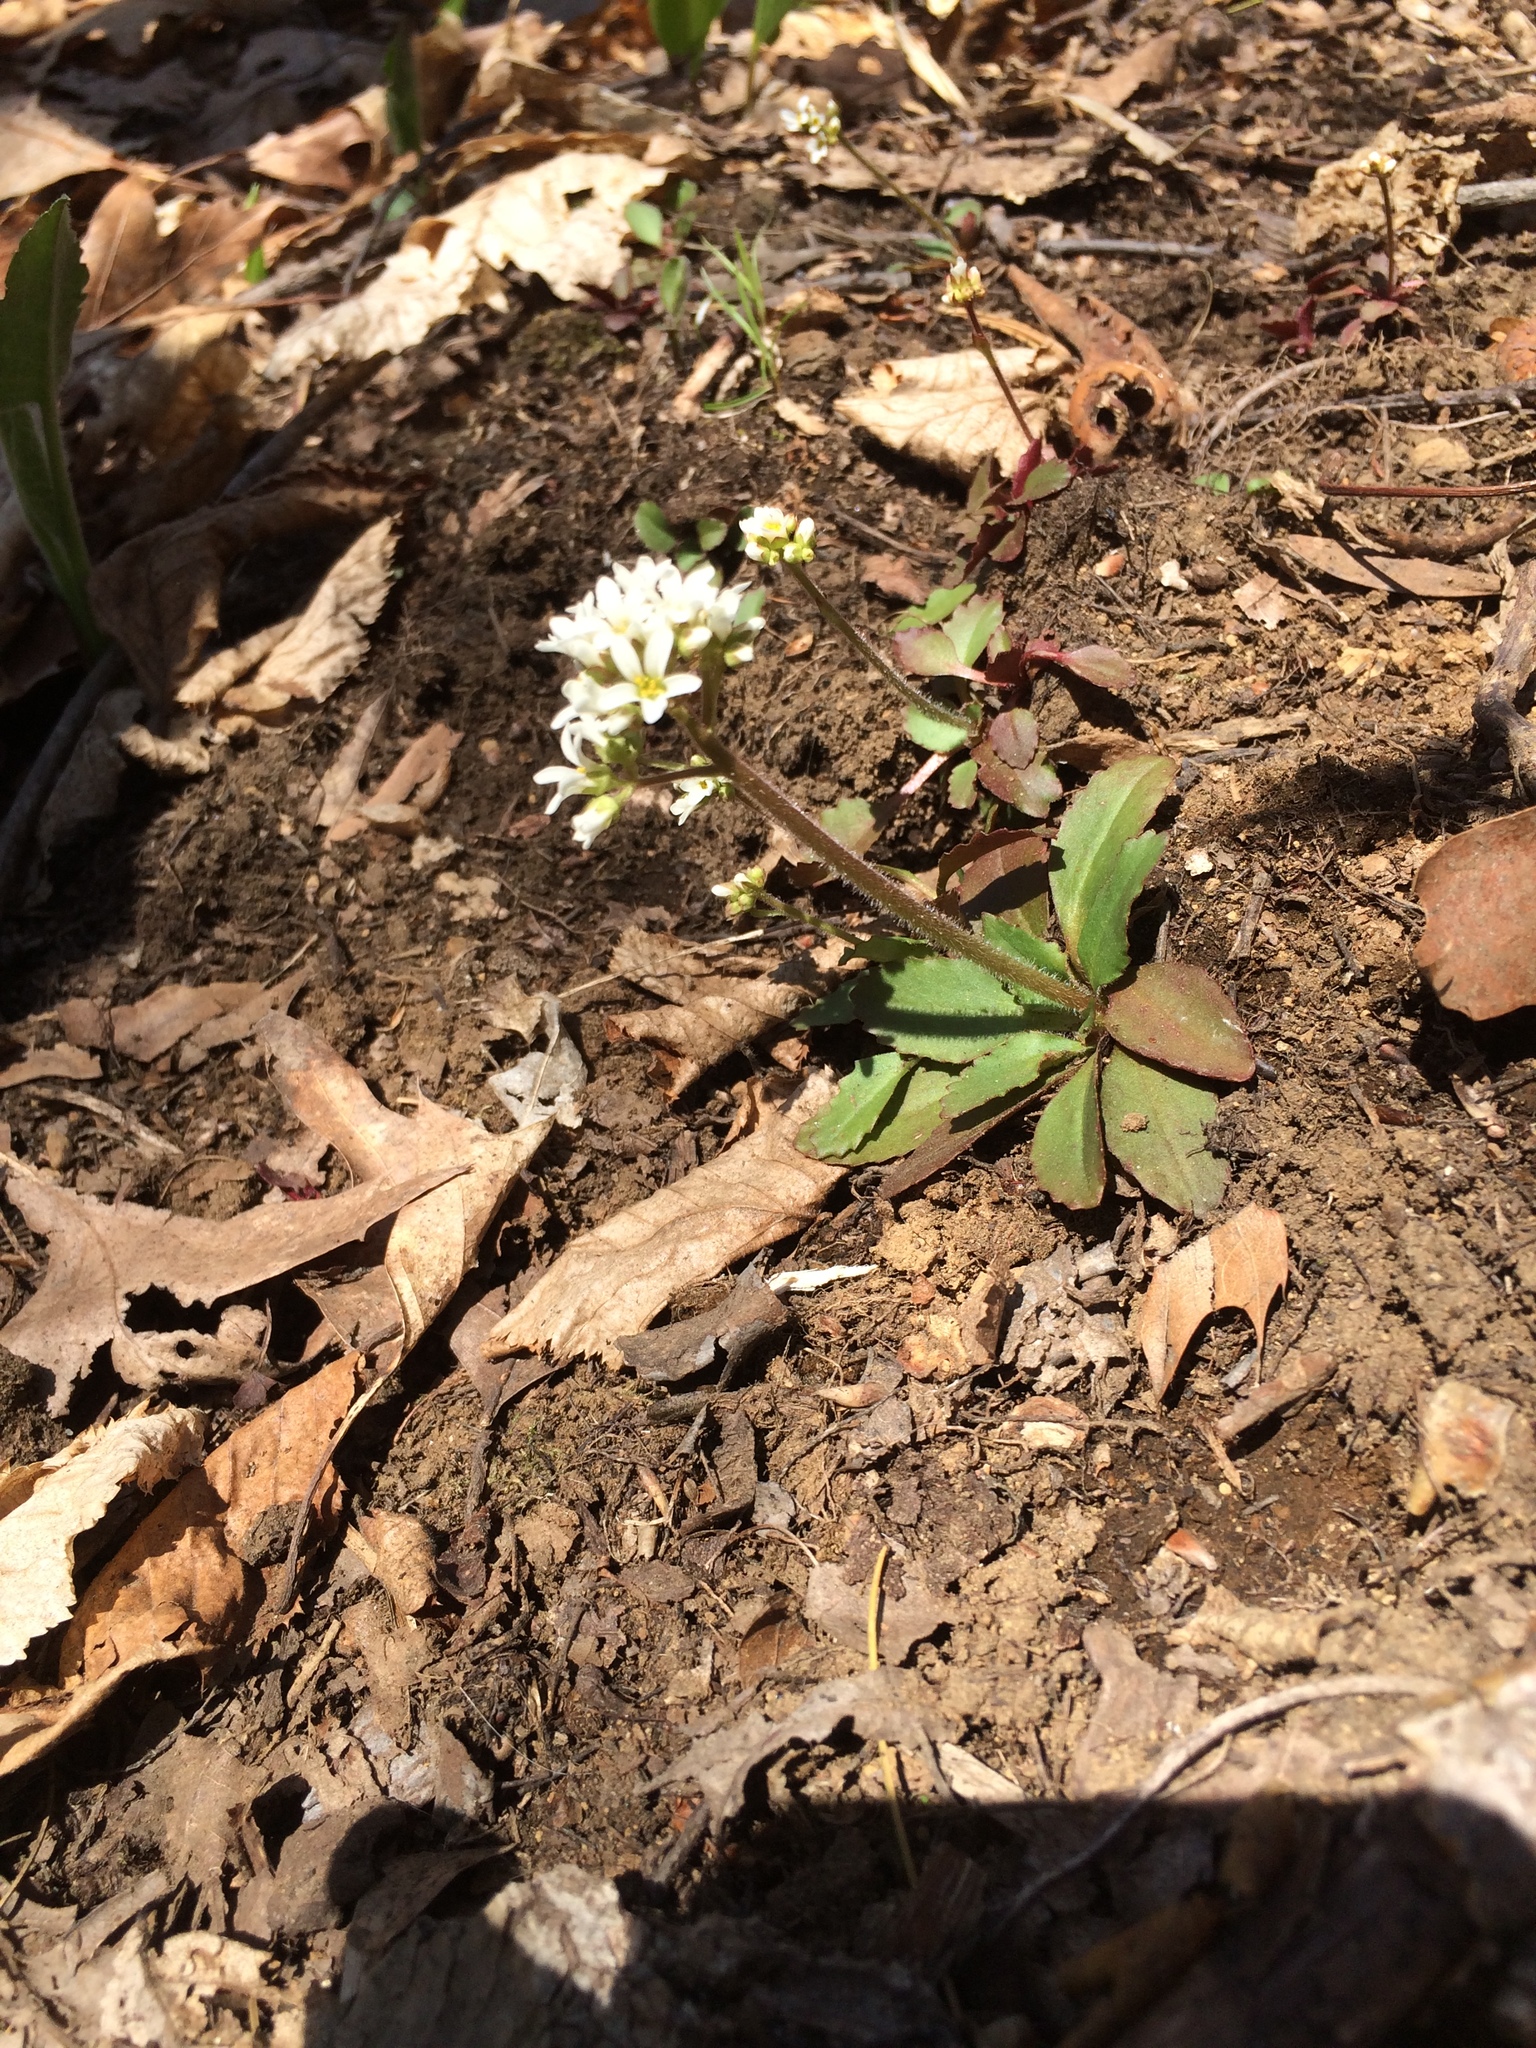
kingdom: Plantae
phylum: Tracheophyta
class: Magnoliopsida
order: Saxifragales
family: Saxifragaceae
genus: Micranthes
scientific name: Micranthes virginiensis
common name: Early saxifrage
